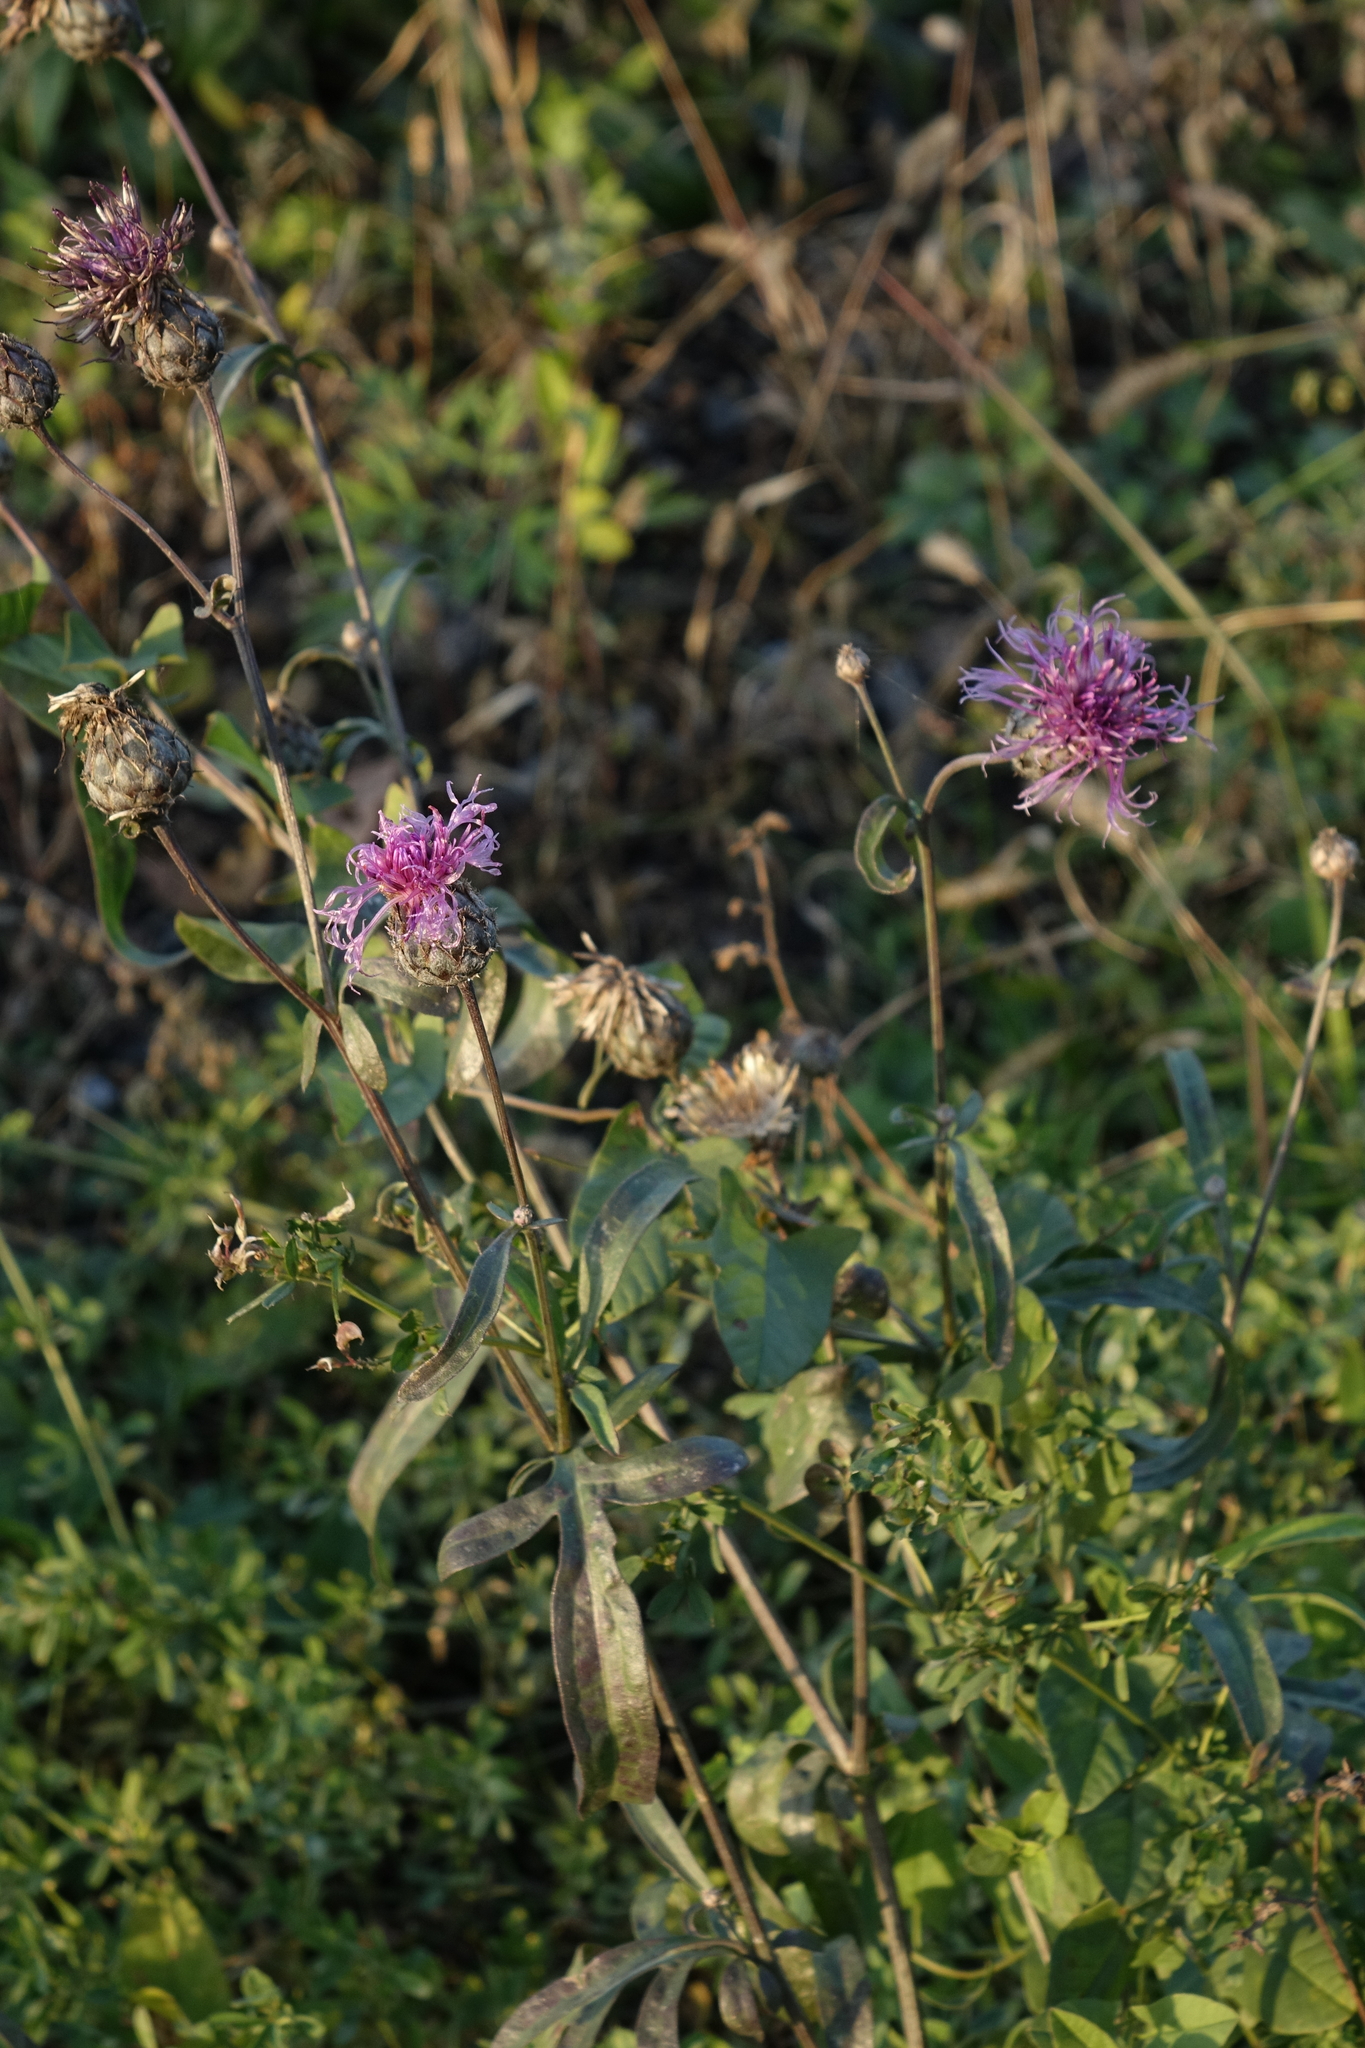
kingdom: Plantae
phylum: Tracheophyta
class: Magnoliopsida
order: Asterales
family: Asteraceae
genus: Centaurea
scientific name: Centaurea scabiosa
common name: Greater knapweed
